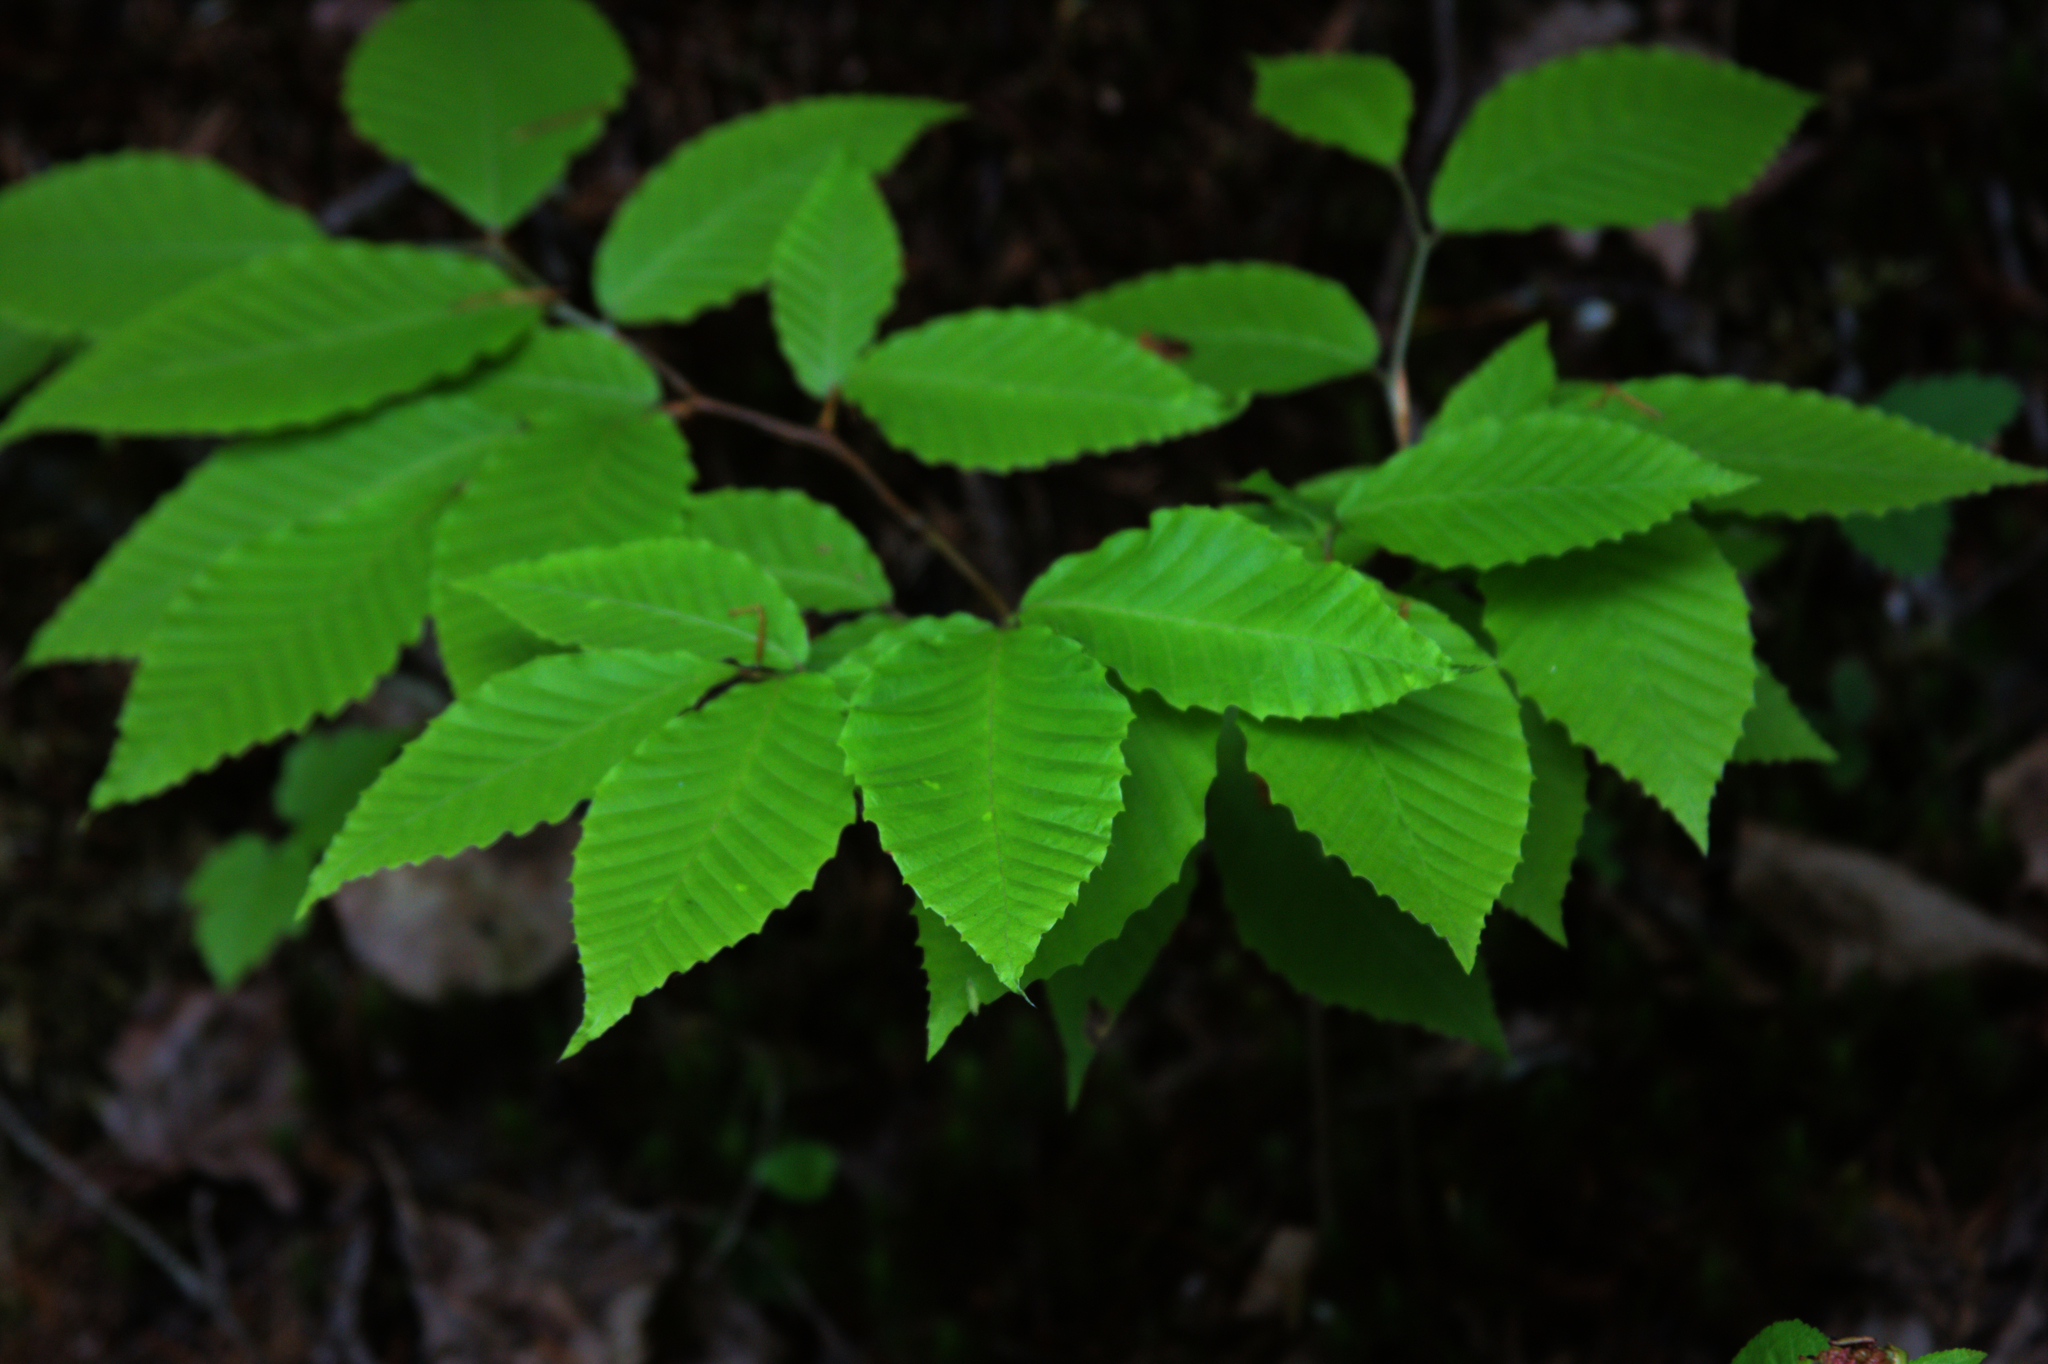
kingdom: Plantae
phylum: Tracheophyta
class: Magnoliopsida
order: Fagales
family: Fagaceae
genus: Fagus
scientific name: Fagus grandifolia
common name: American beech
